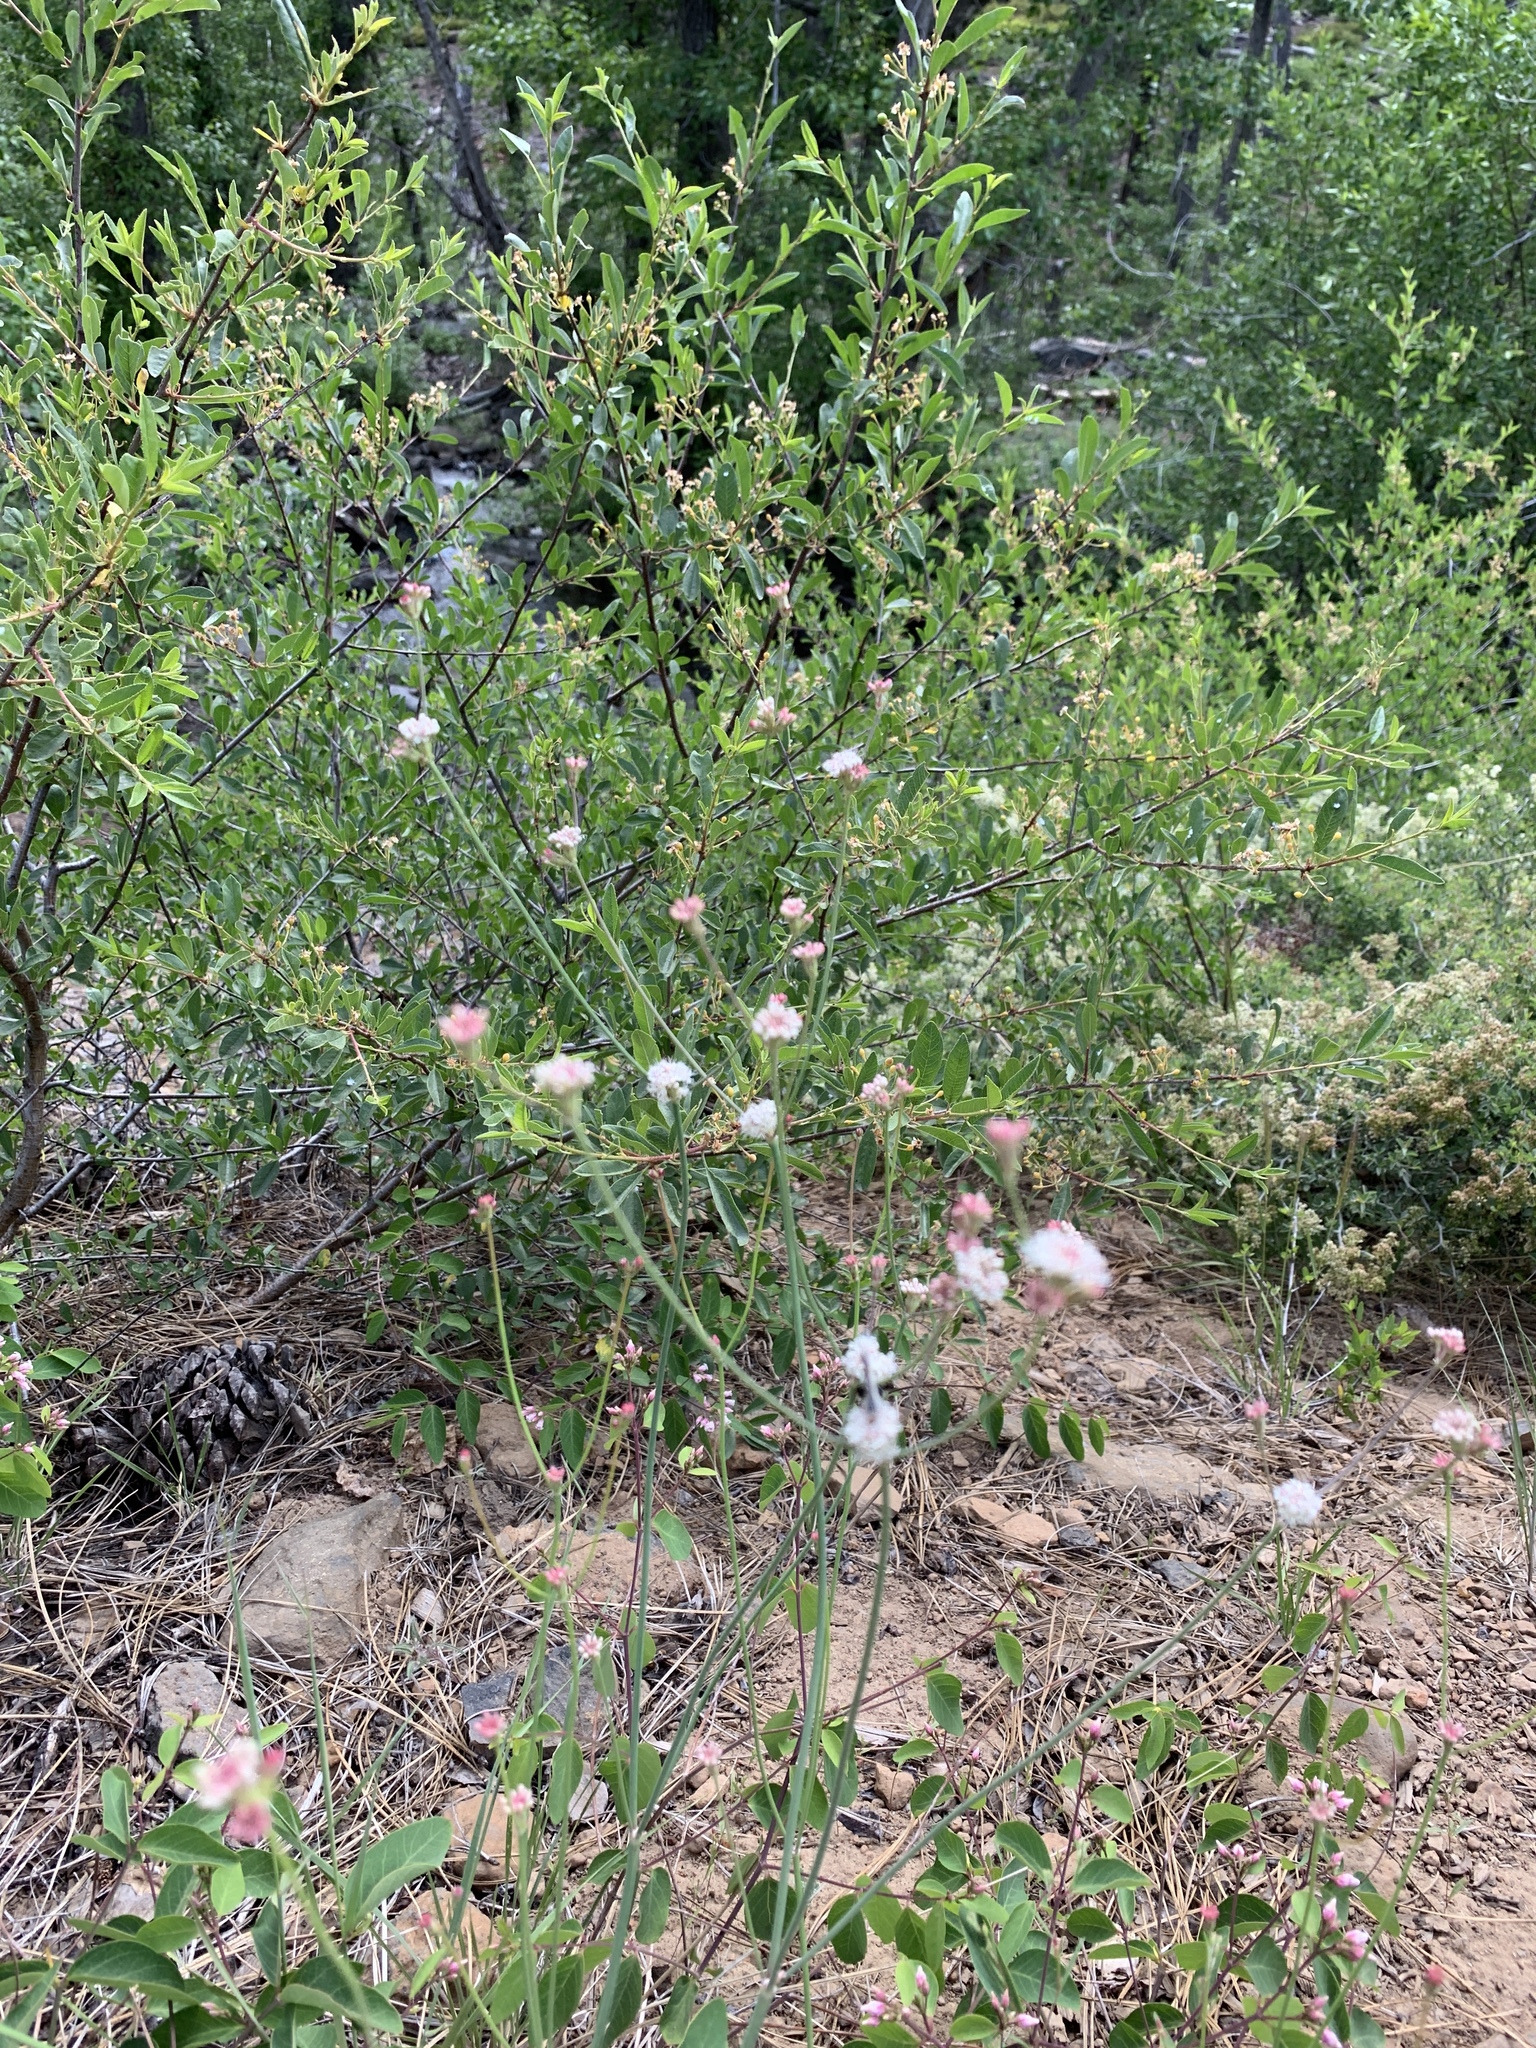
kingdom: Plantae
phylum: Tracheophyta
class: Magnoliopsida
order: Caryophyllales
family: Polygonaceae
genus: Eriogonum
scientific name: Eriogonum nudum
